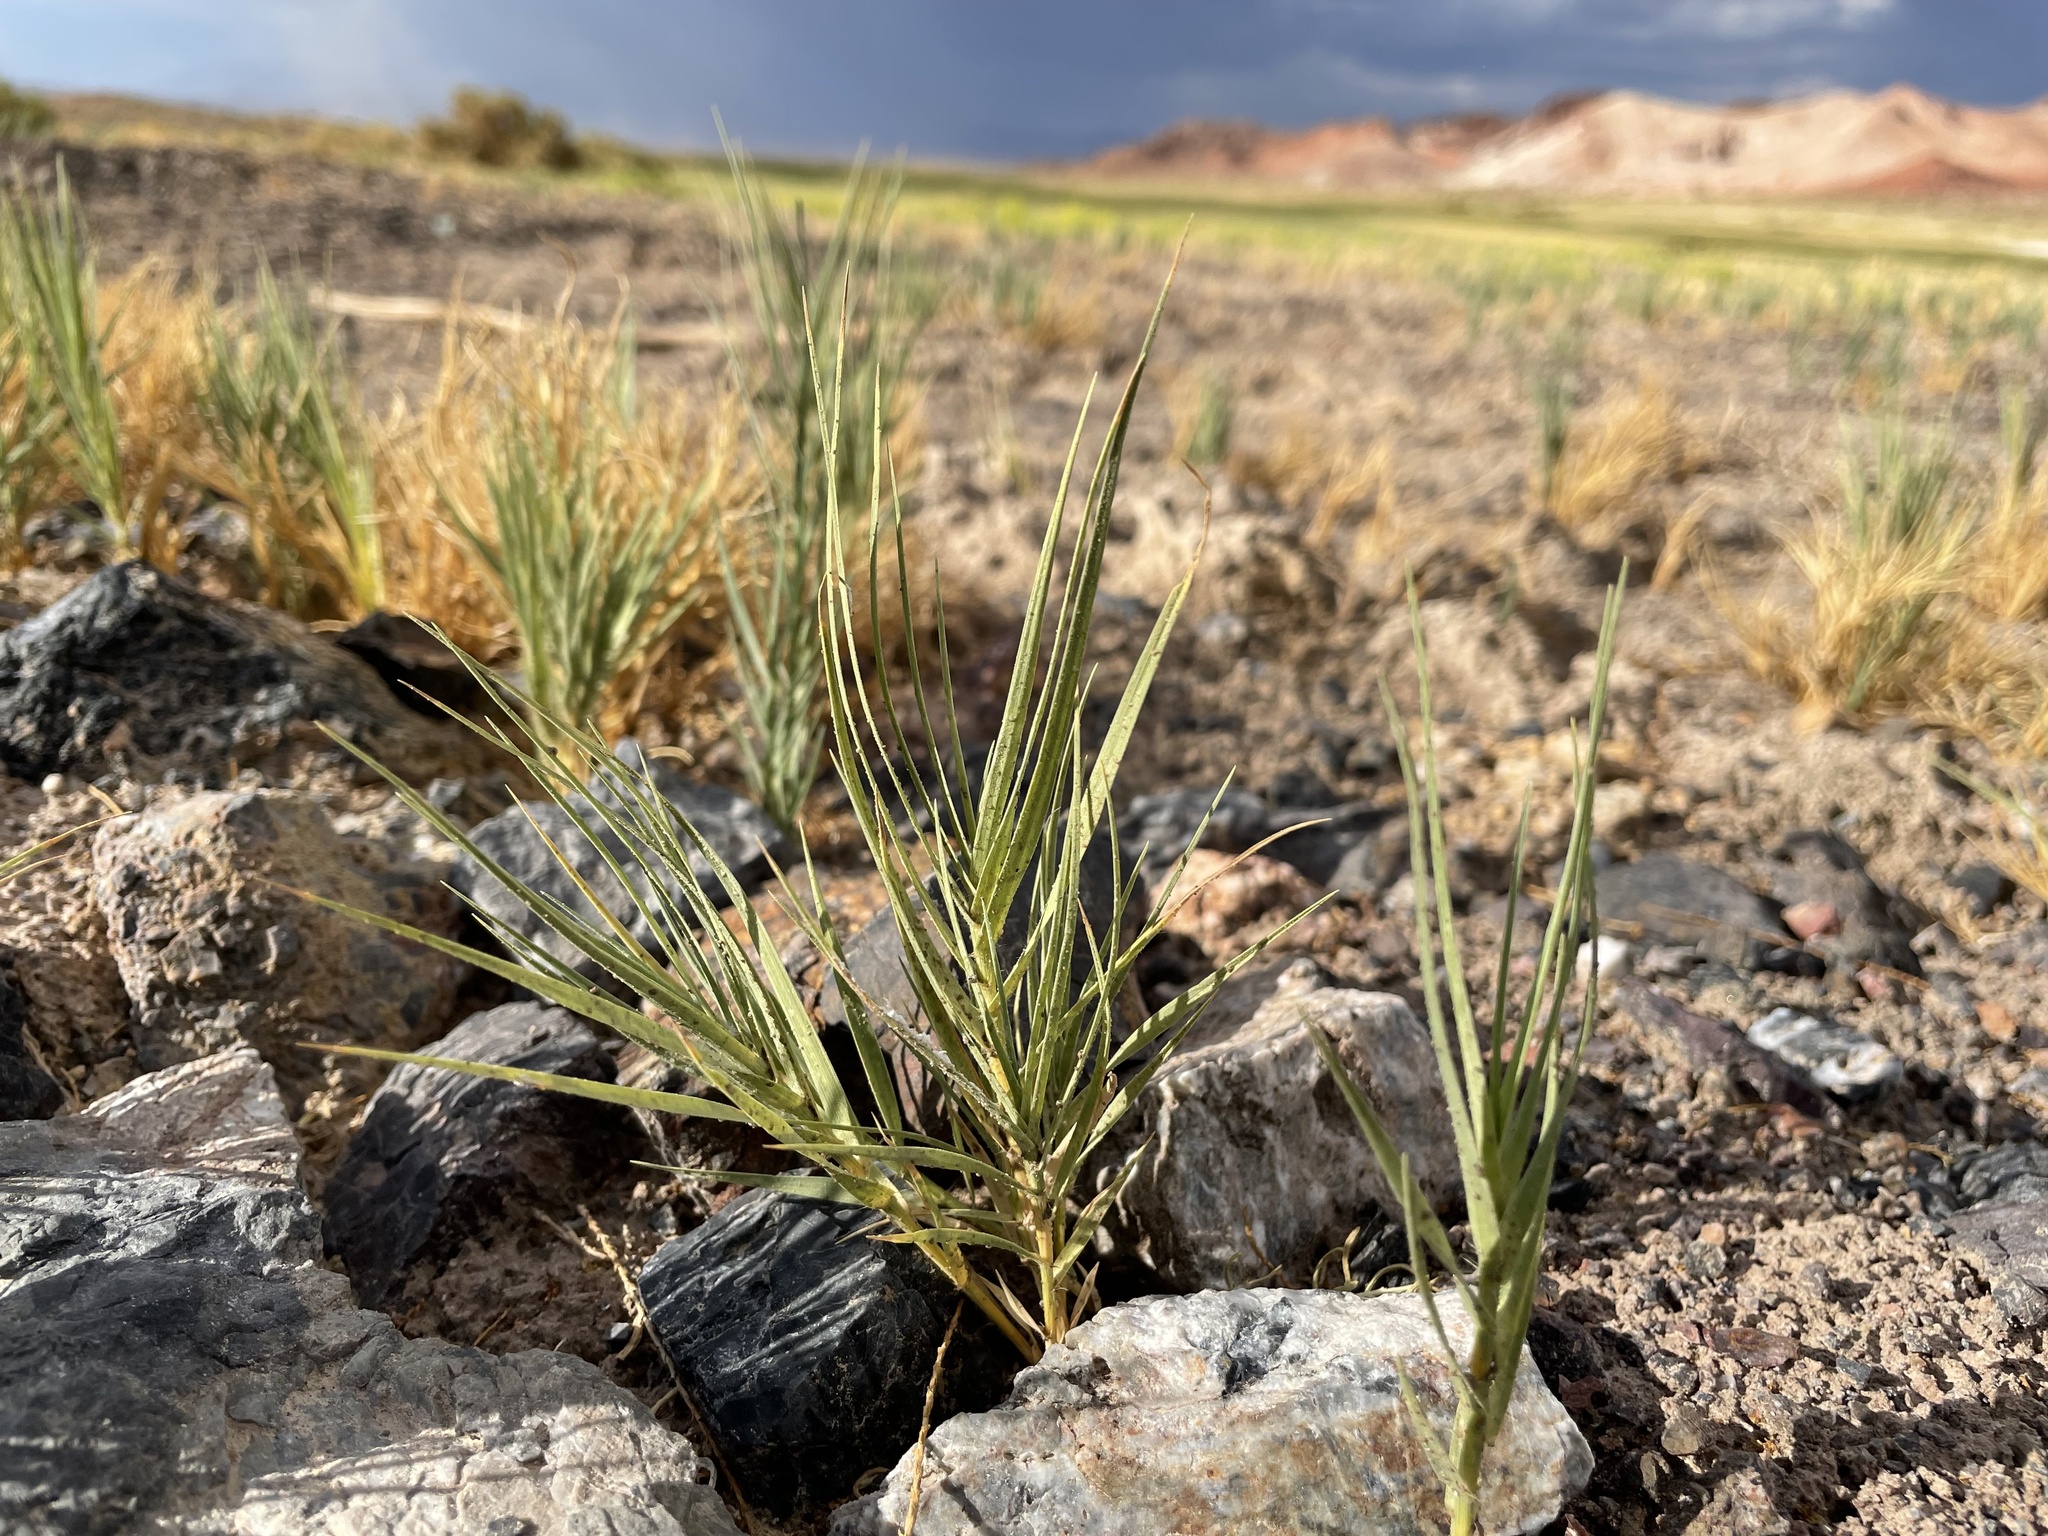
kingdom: Plantae
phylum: Tracheophyta
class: Liliopsida
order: Poales
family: Poaceae
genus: Distichlis
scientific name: Distichlis spicata
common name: Saltgrass
